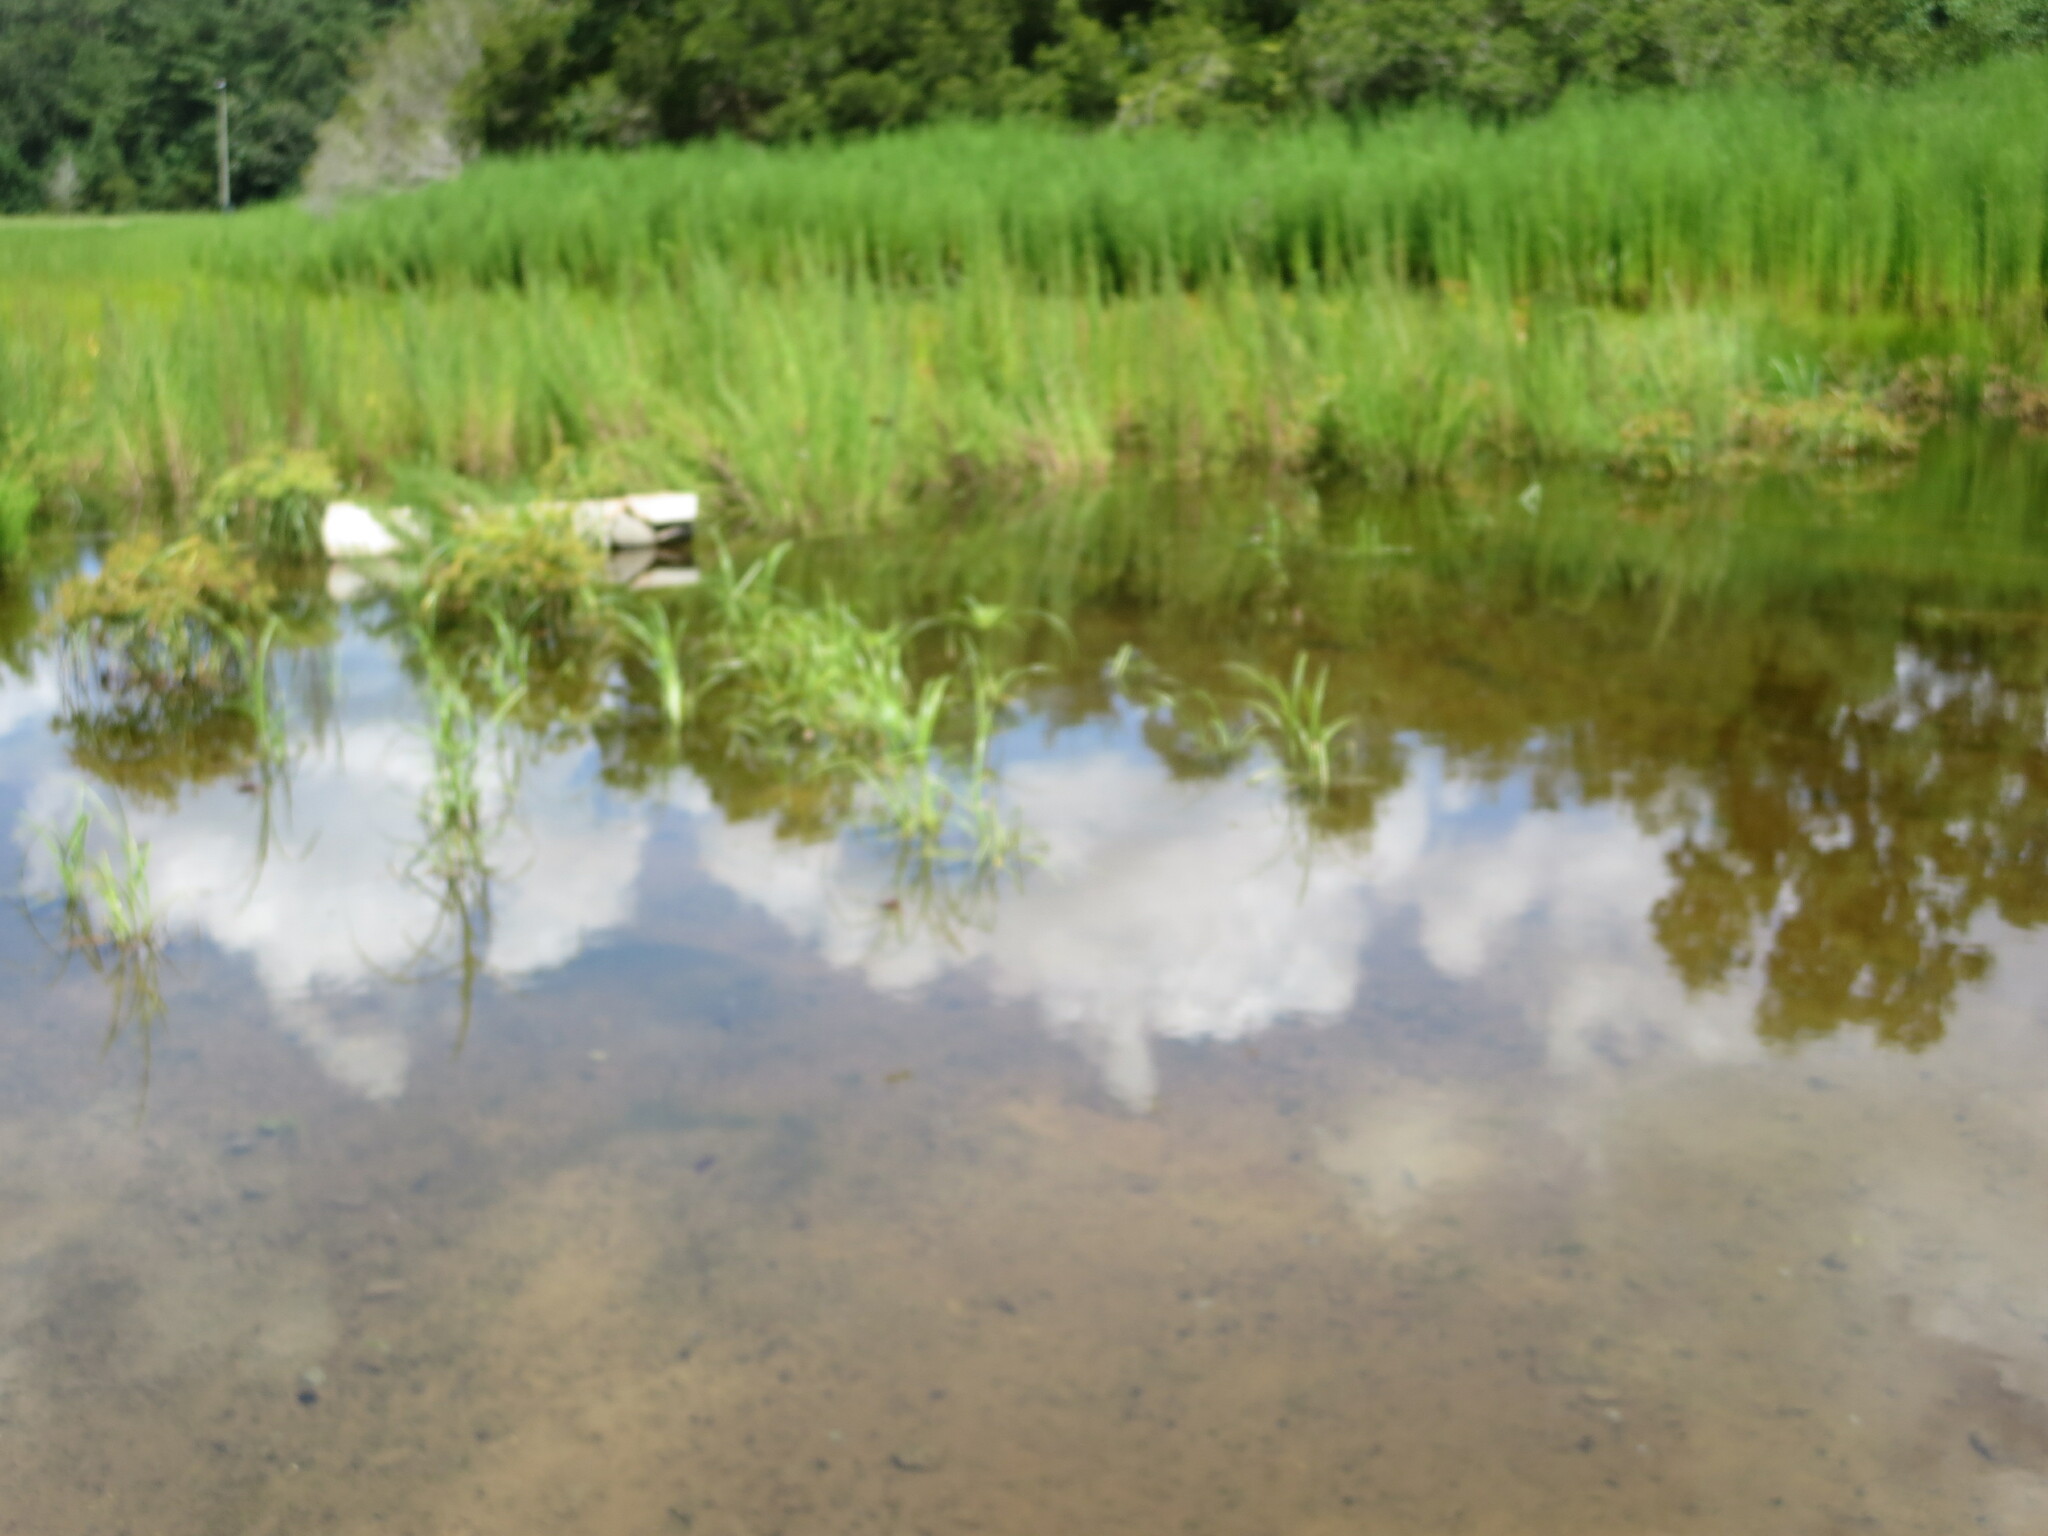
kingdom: Plantae
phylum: Tracheophyta
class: Magnoliopsida
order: Asterales
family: Asteraceae
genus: Eupatorium
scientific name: Eupatorium capillifolium
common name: Dog-fennel
